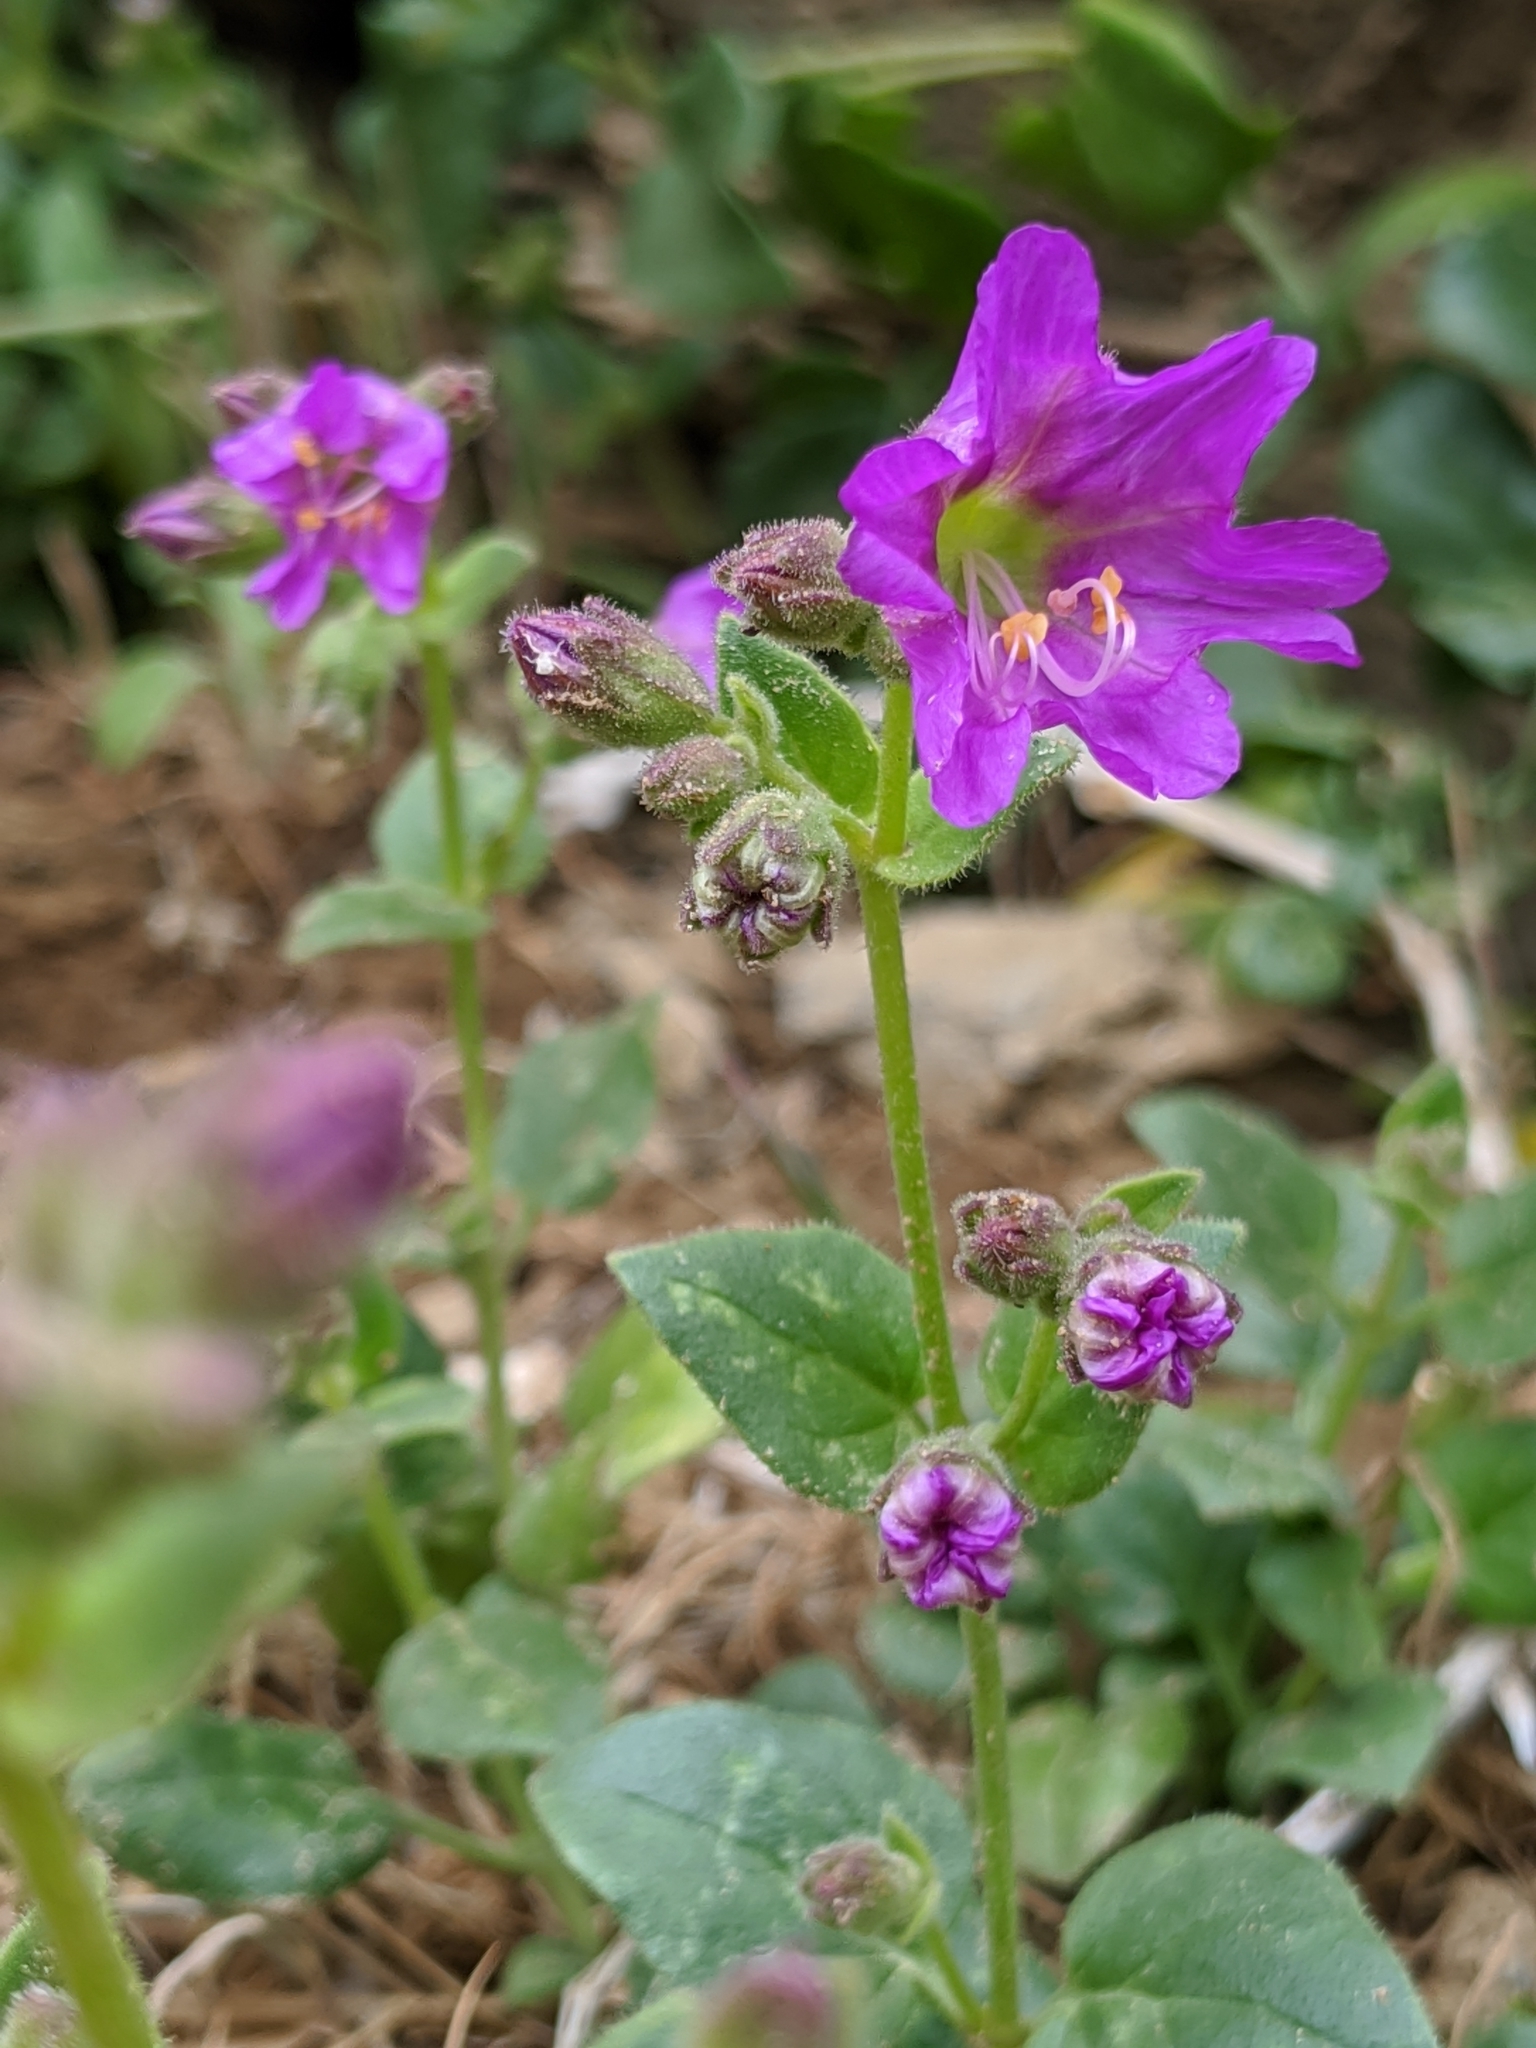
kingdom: Plantae
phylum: Tracheophyta
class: Magnoliopsida
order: Caryophyllales
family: Nyctaginaceae
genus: Mirabilis
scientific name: Mirabilis laevis
